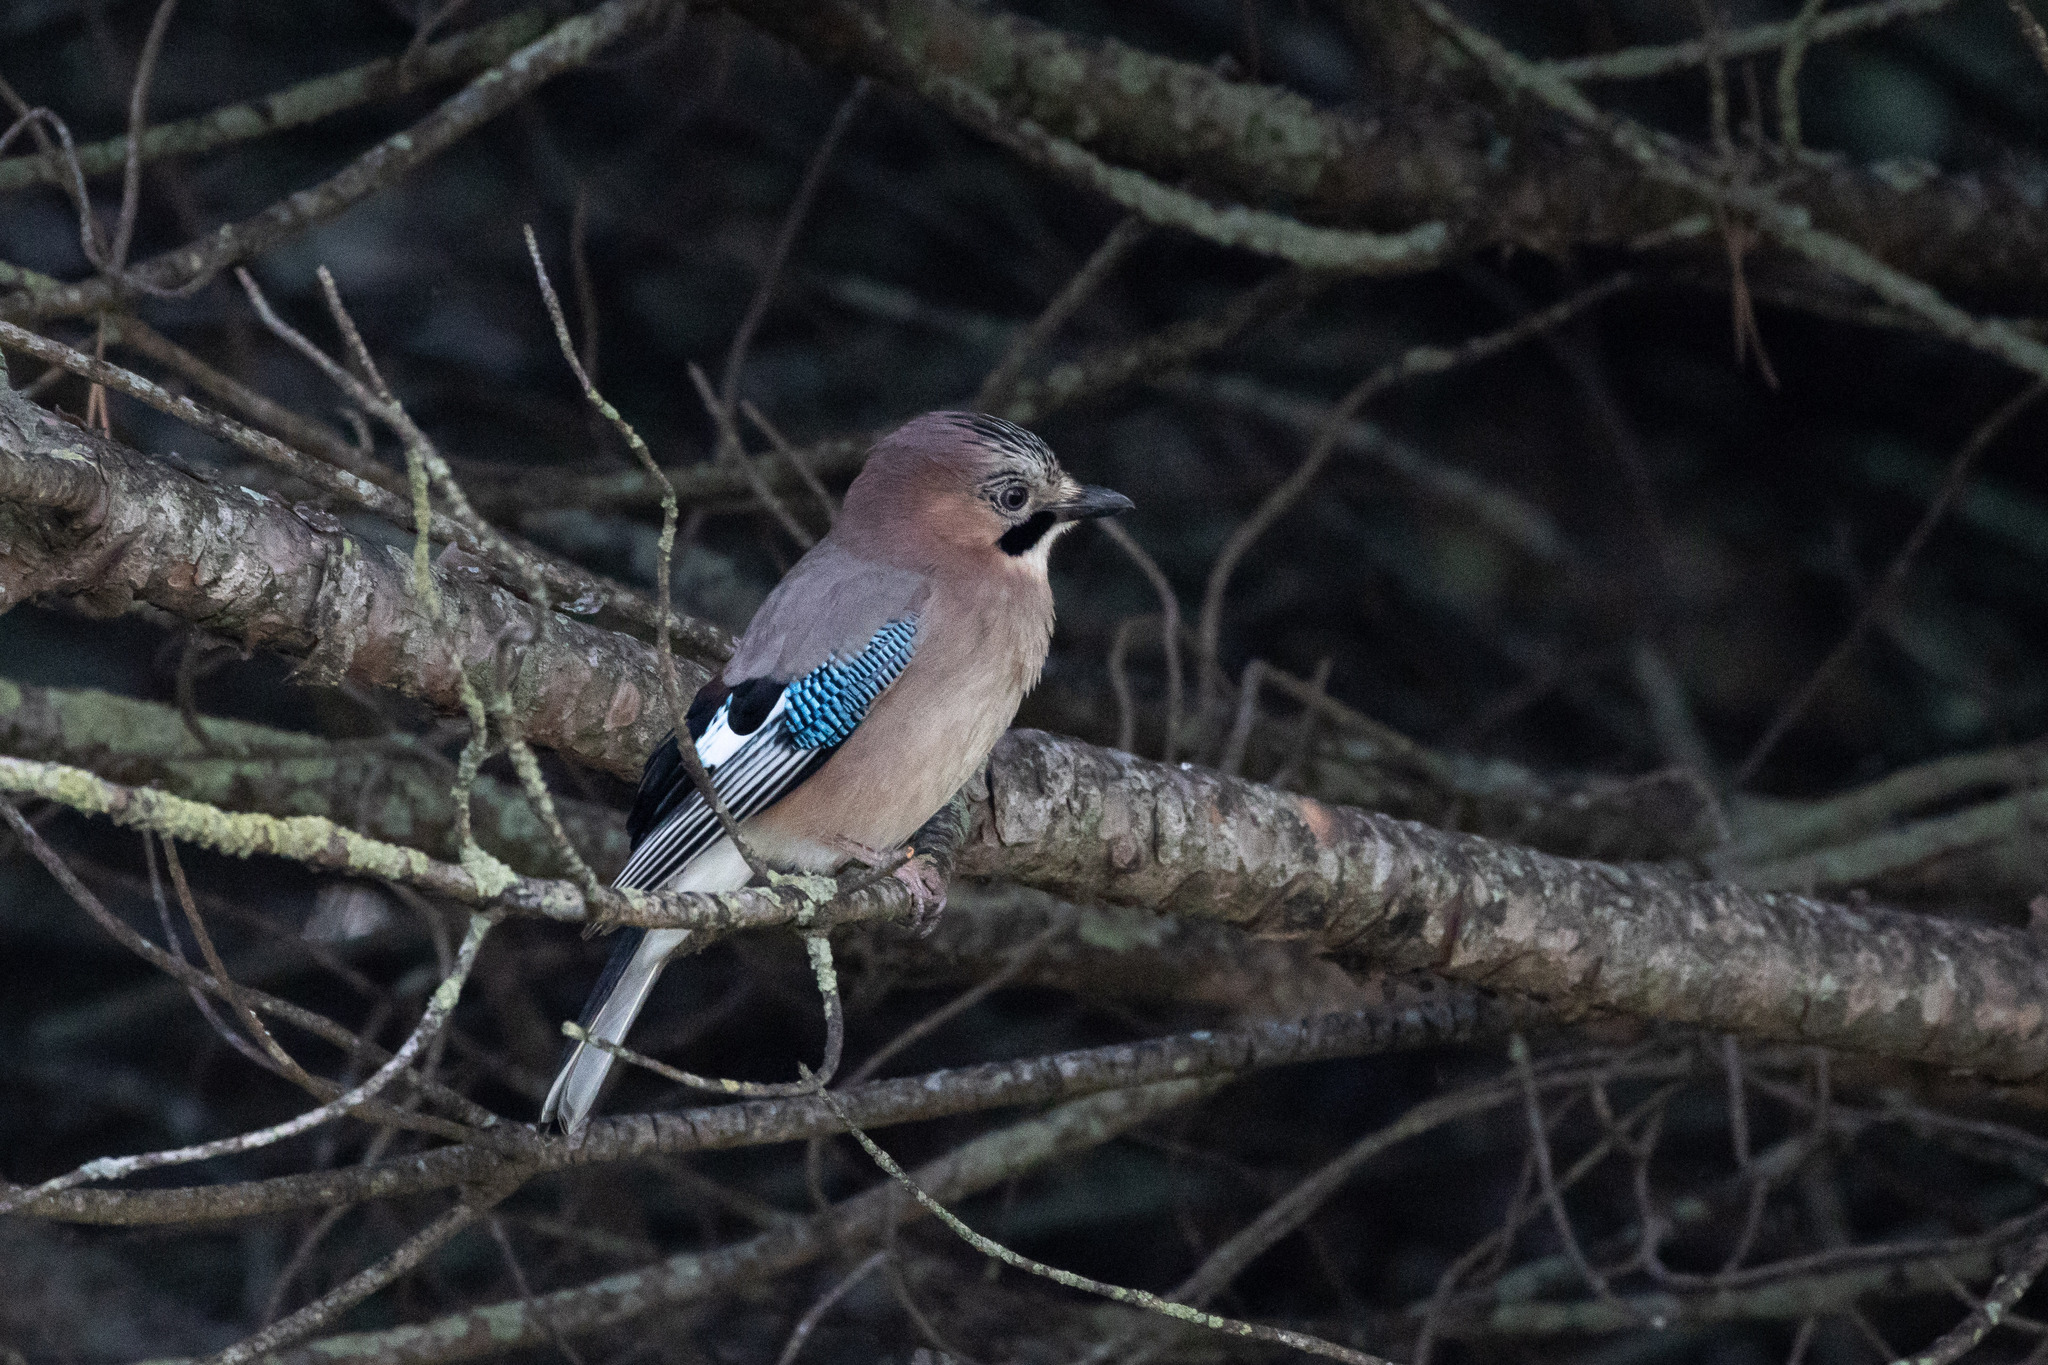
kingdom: Animalia
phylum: Chordata
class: Aves
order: Passeriformes
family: Corvidae
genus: Garrulus
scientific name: Garrulus glandarius
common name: Eurasian jay
